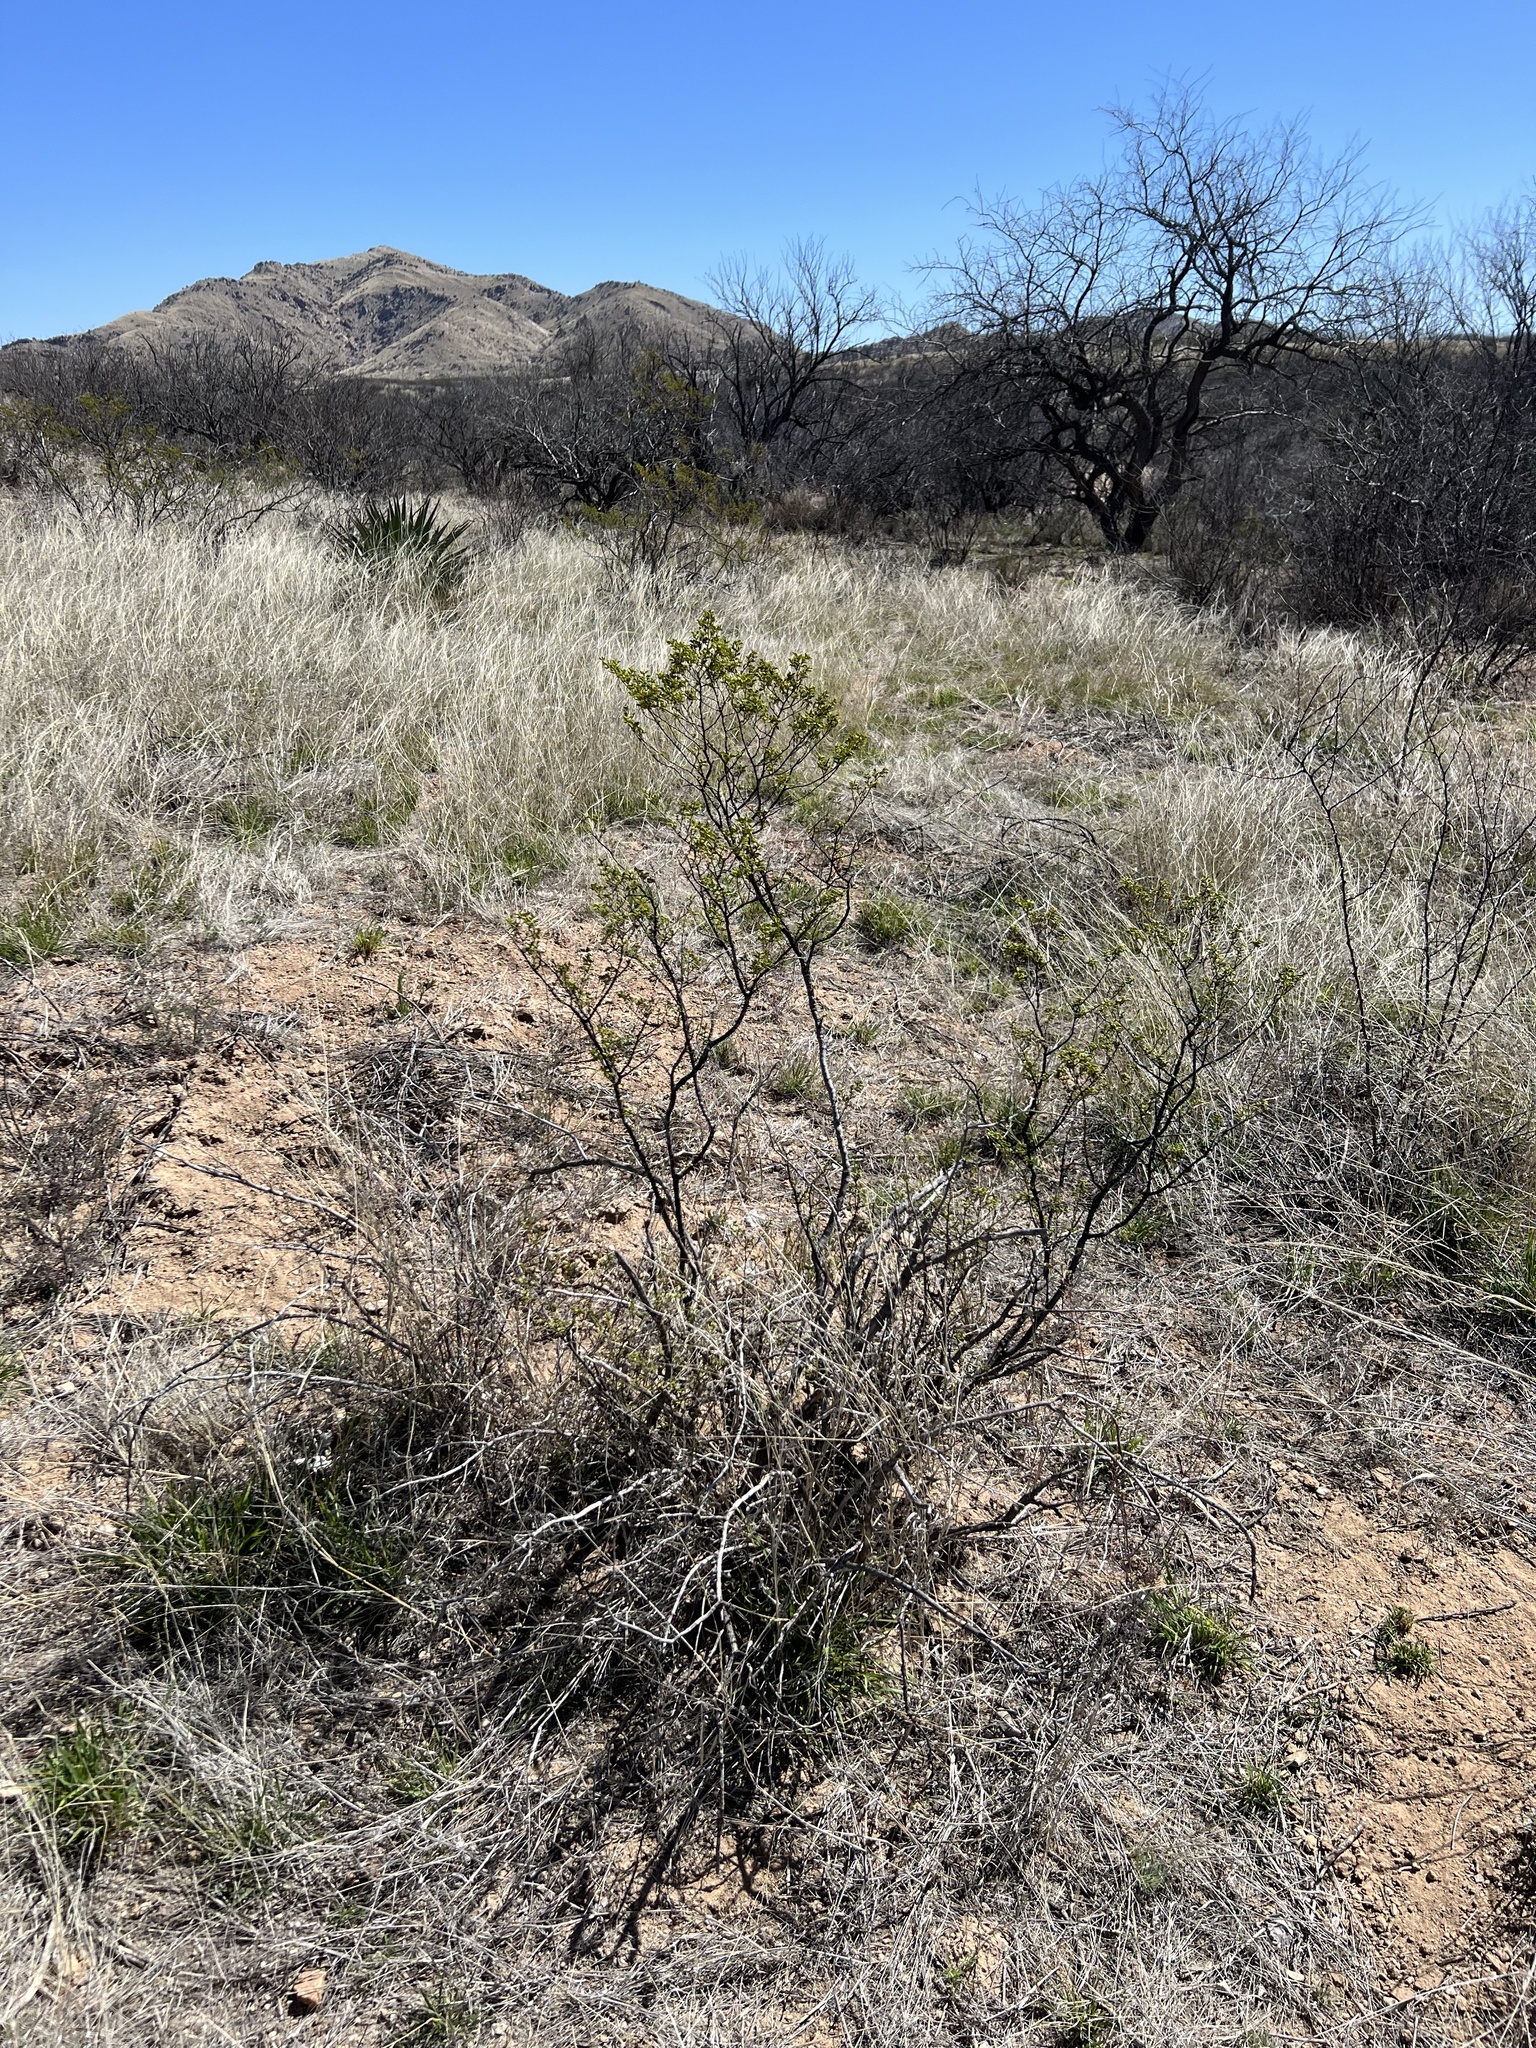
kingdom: Plantae
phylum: Tracheophyta
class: Magnoliopsida
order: Zygophyllales
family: Zygophyllaceae
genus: Larrea
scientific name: Larrea tridentata
